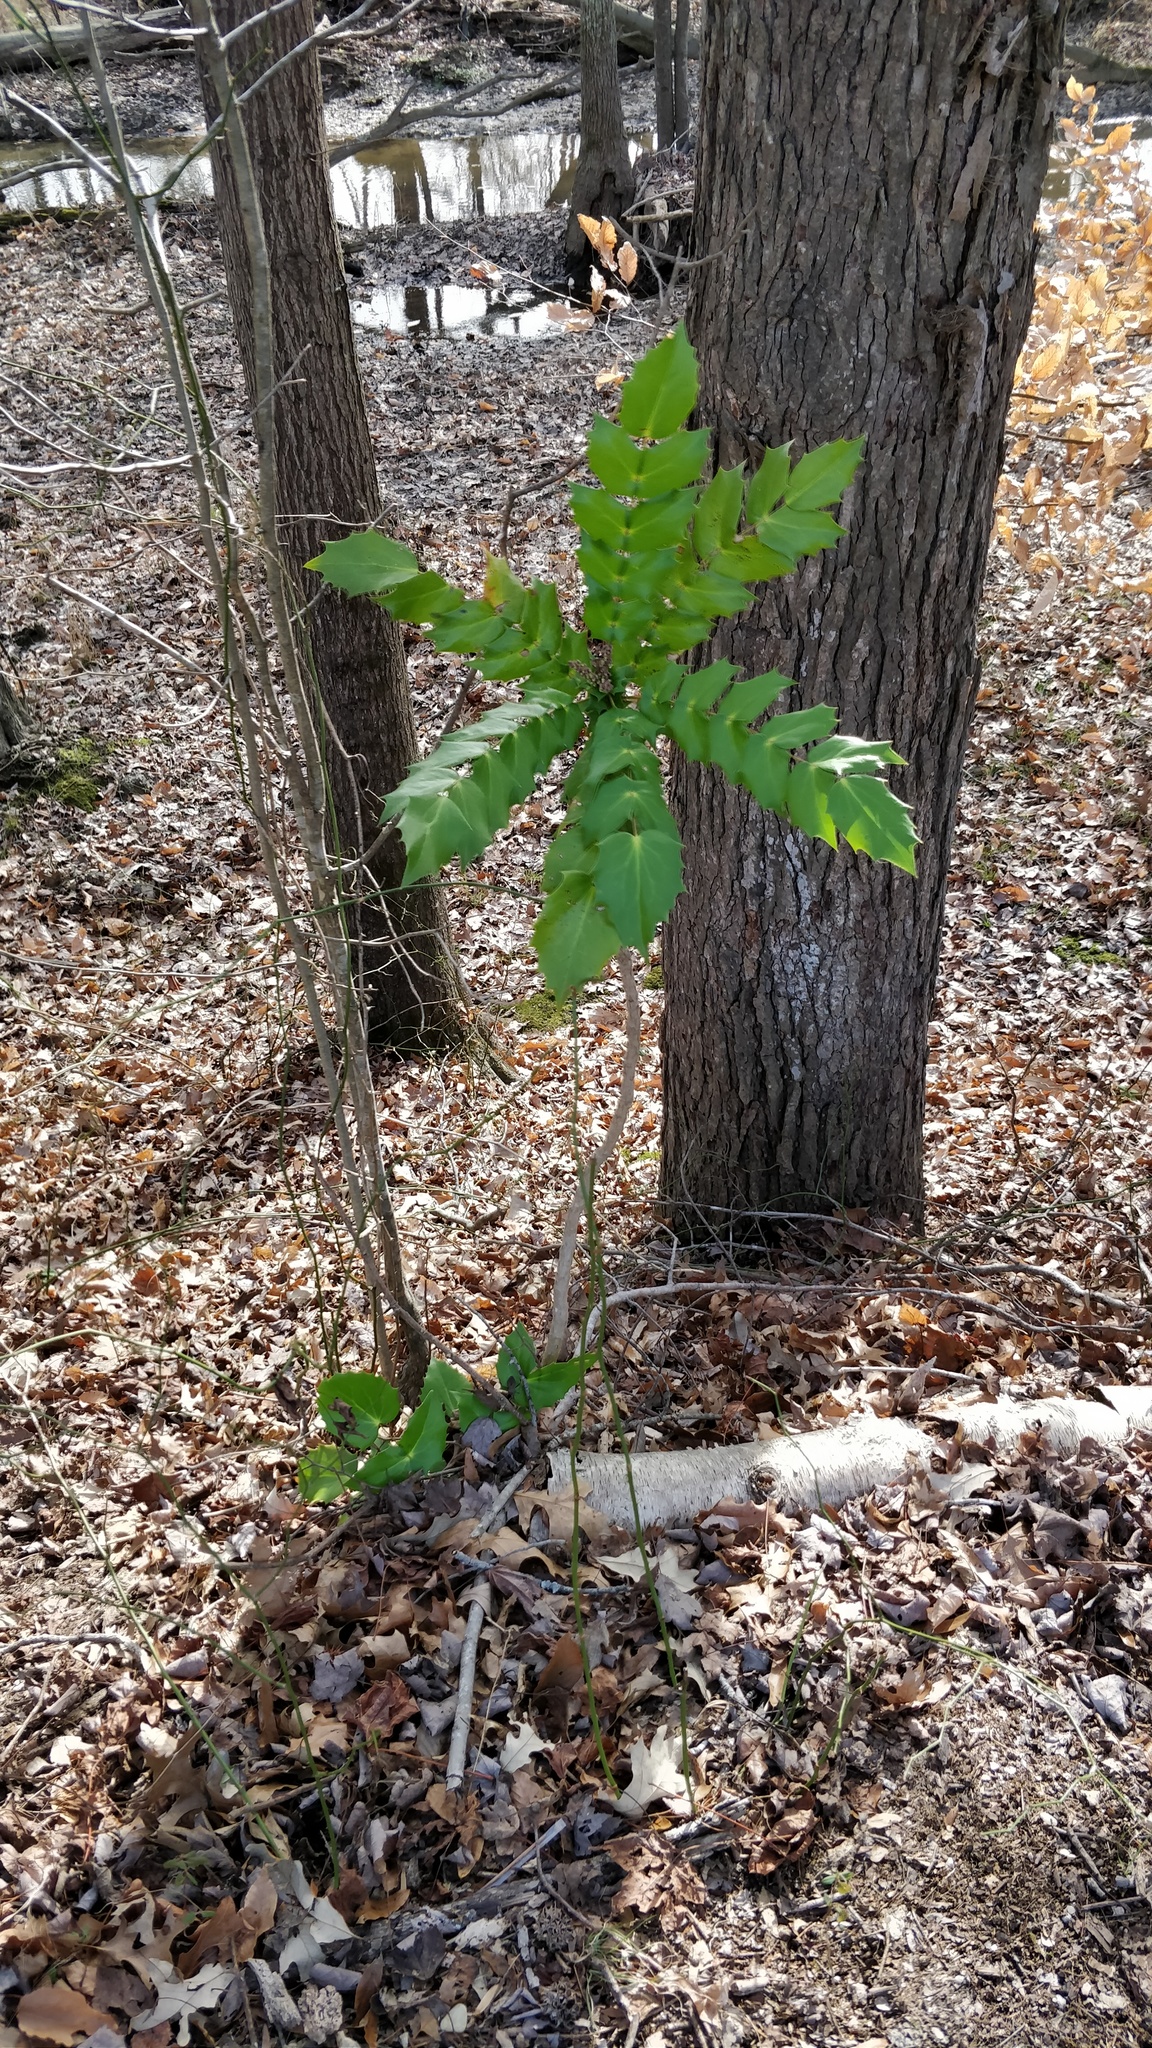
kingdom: Plantae
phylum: Tracheophyta
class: Magnoliopsida
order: Ranunculales
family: Berberidaceae
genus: Mahonia
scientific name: Mahonia bealei
